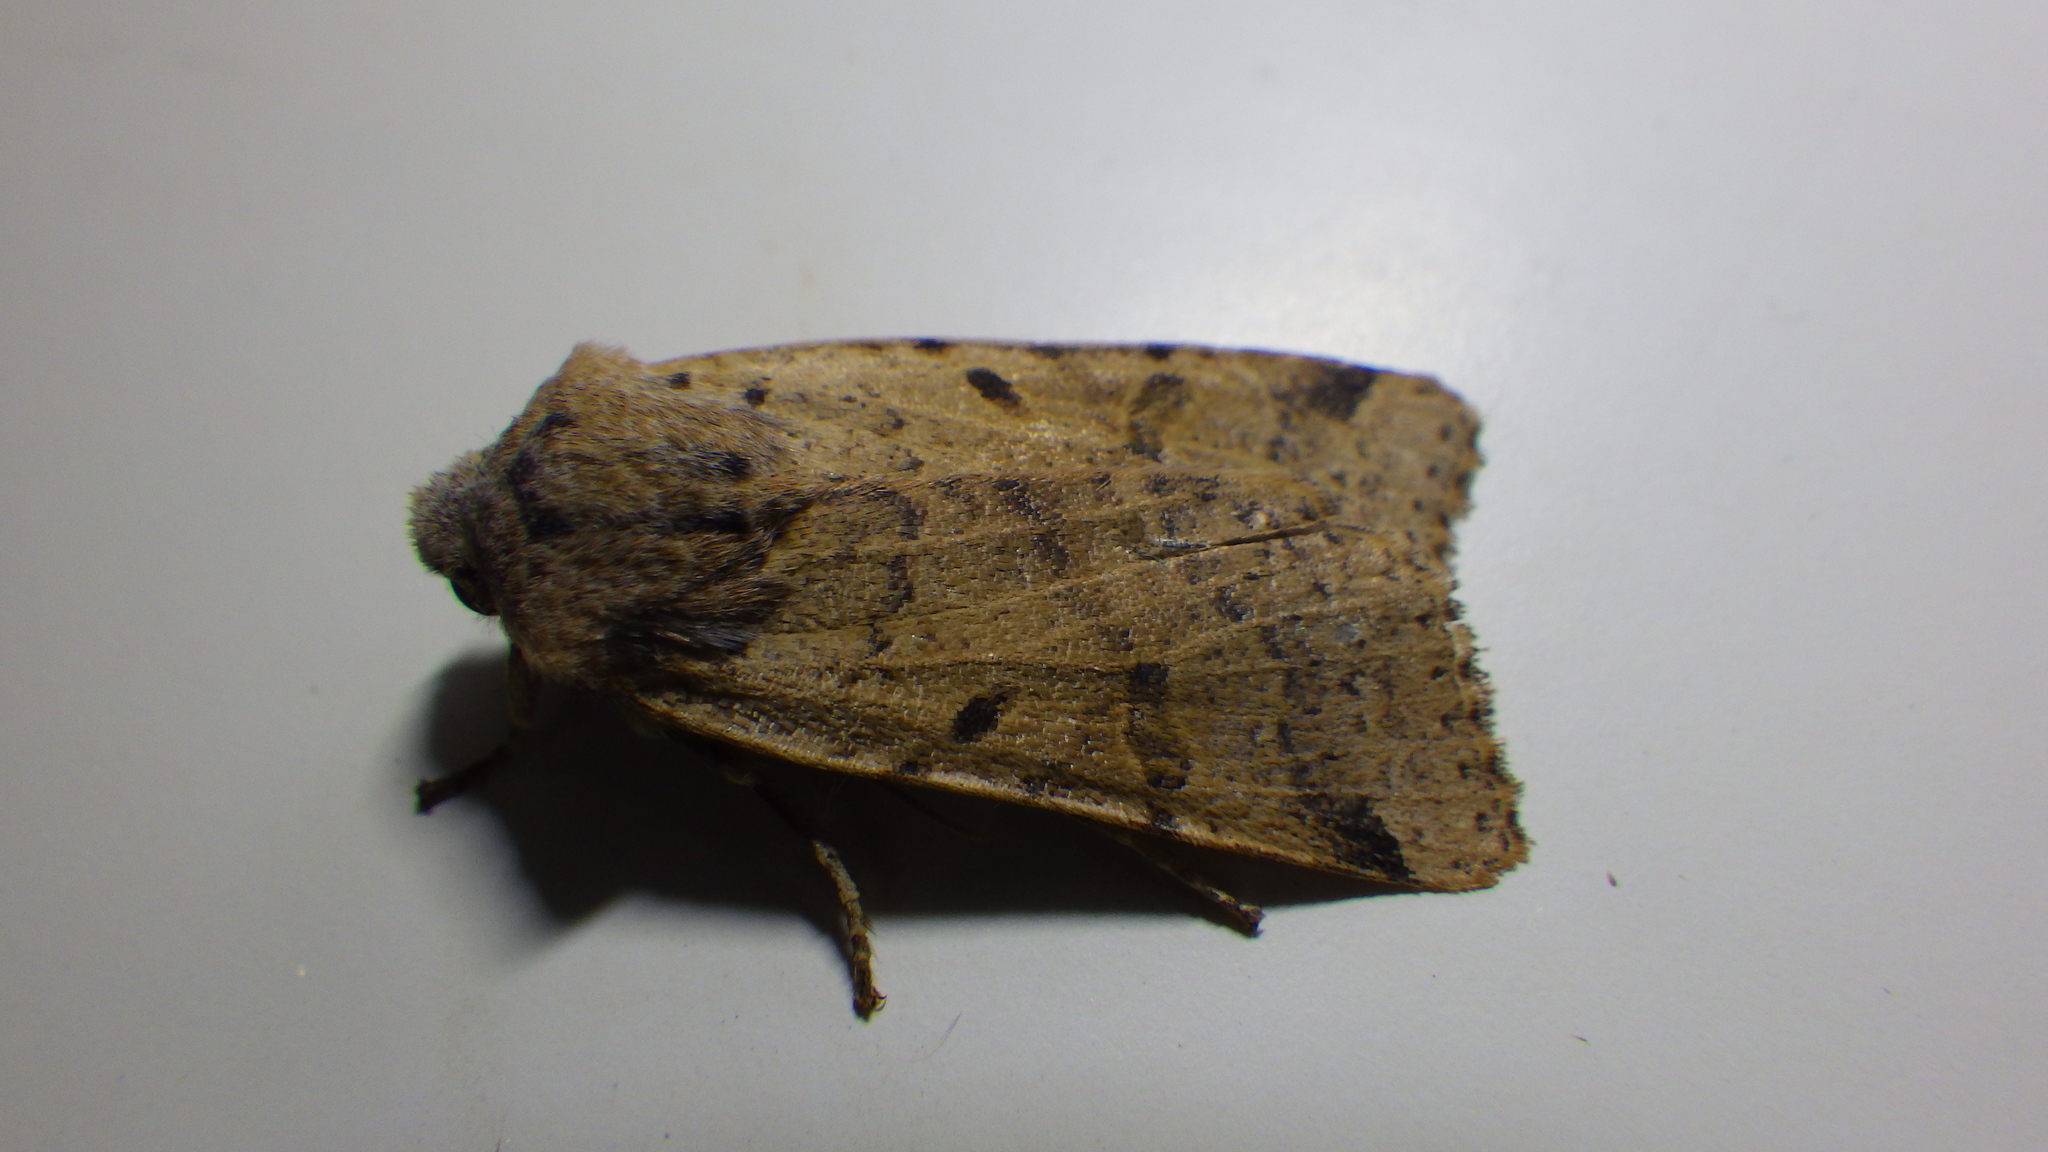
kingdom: Animalia
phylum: Arthropoda
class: Insecta
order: Lepidoptera
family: Noctuidae
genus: Agrochola
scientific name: Agrochola lychnidis
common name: Beaded chestnut
